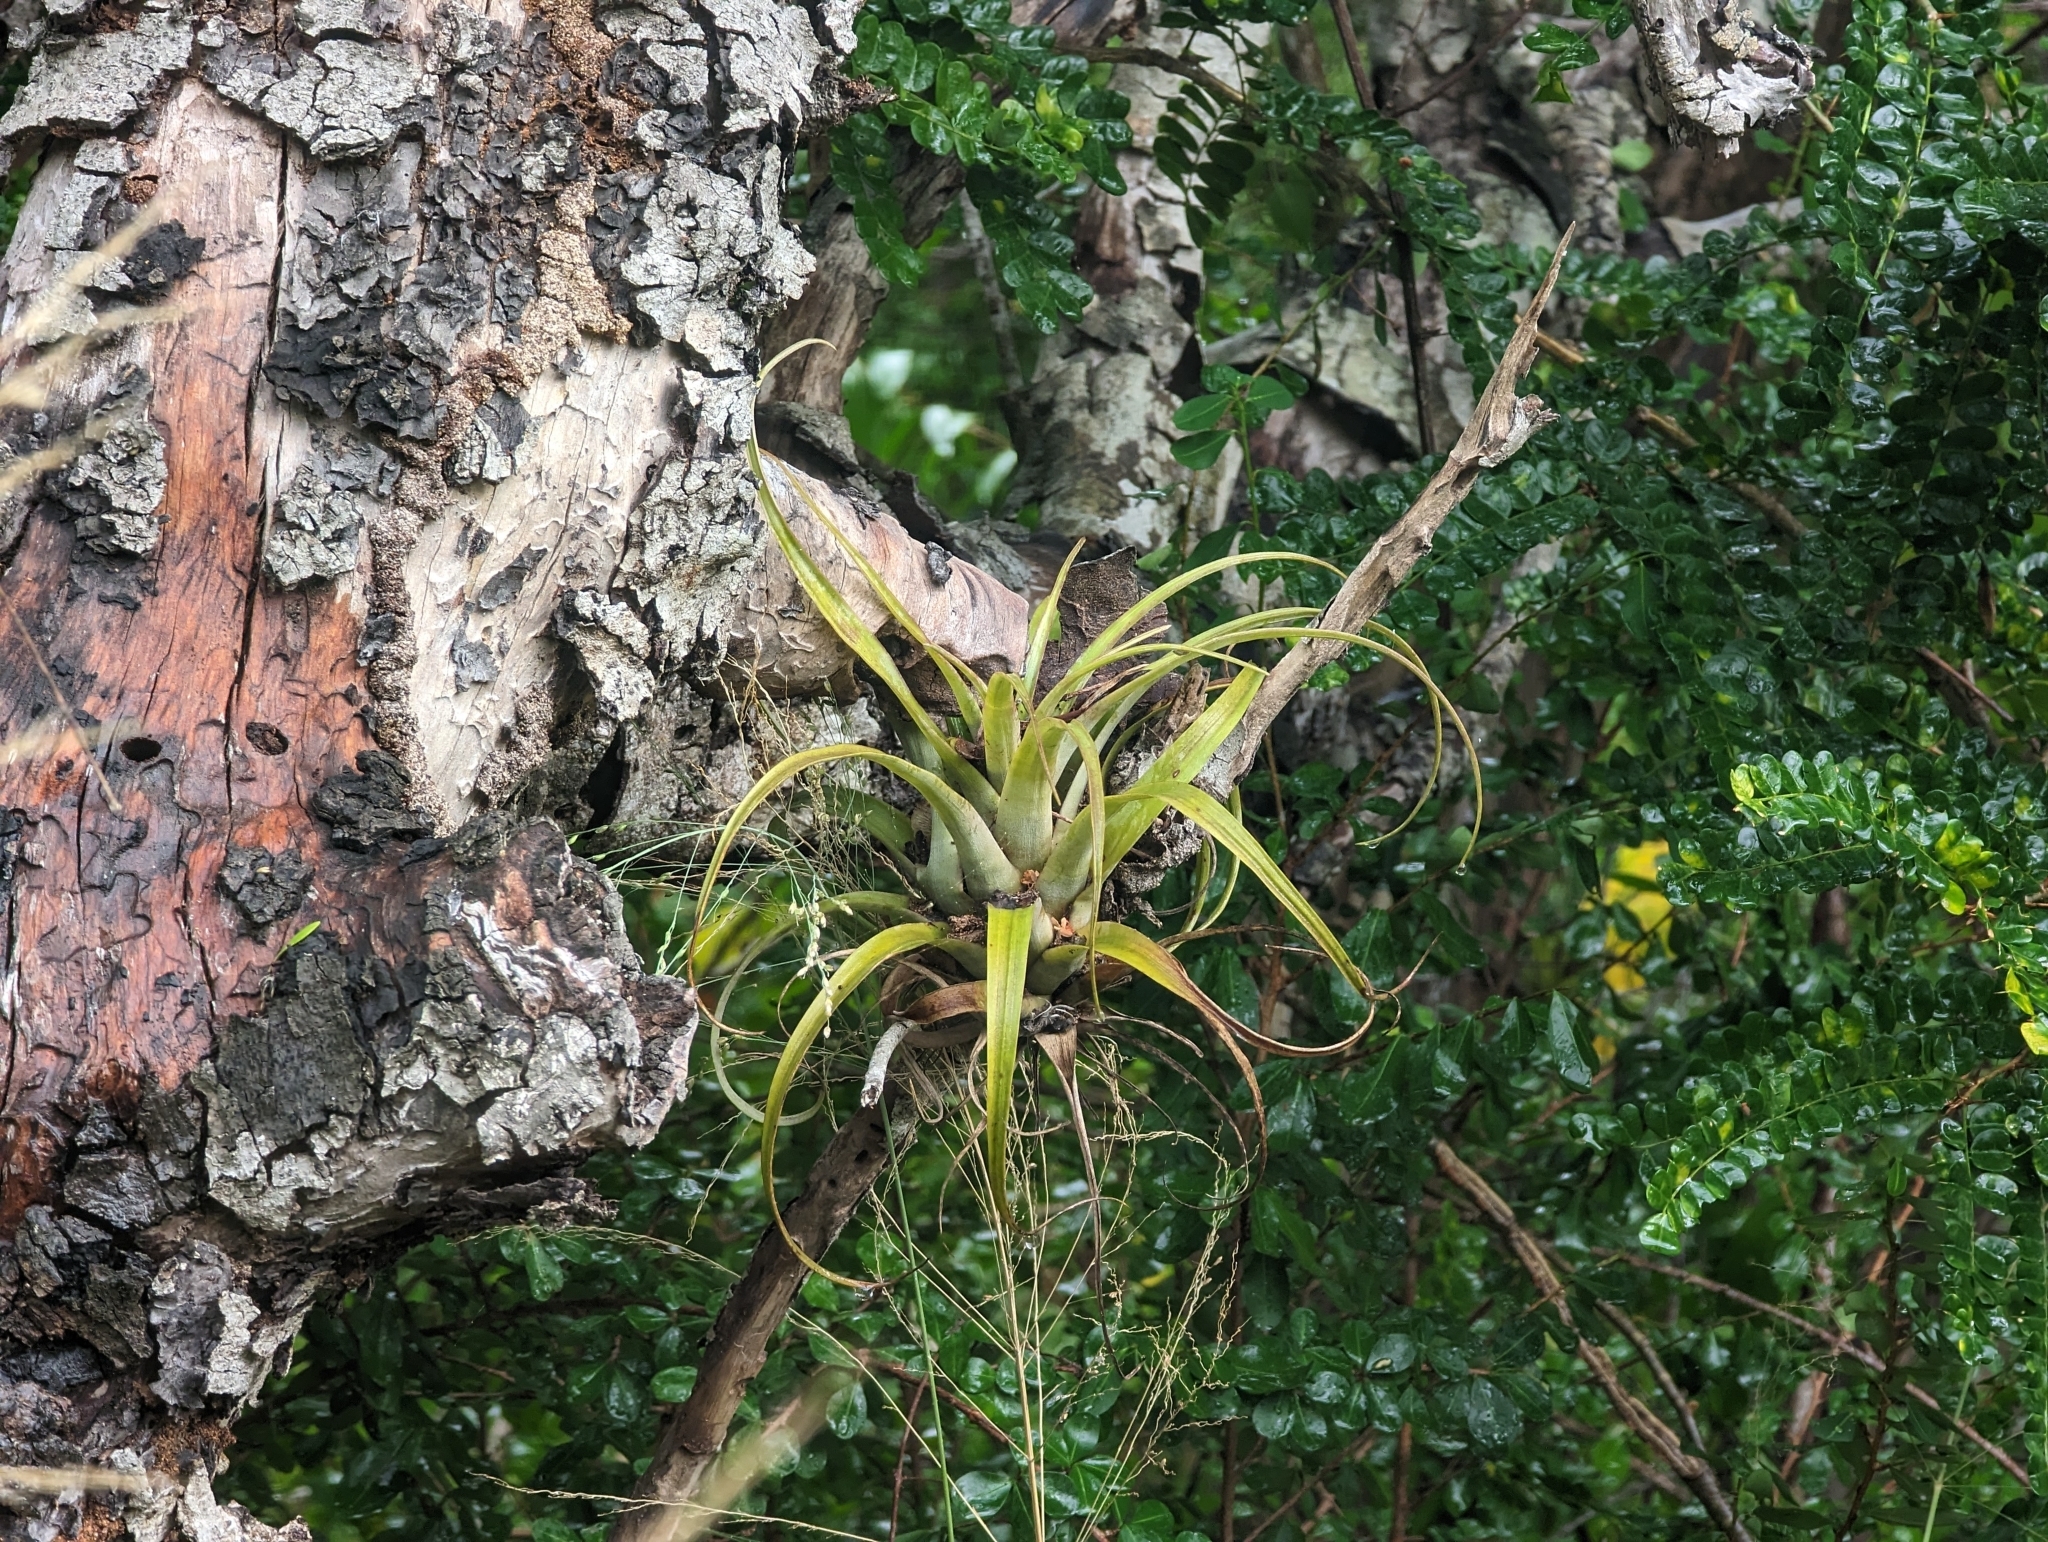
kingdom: Plantae
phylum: Tracheophyta
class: Liliopsida
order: Poales
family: Bromeliaceae
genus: Tillandsia
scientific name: Tillandsia utriculata
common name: Wild pine
